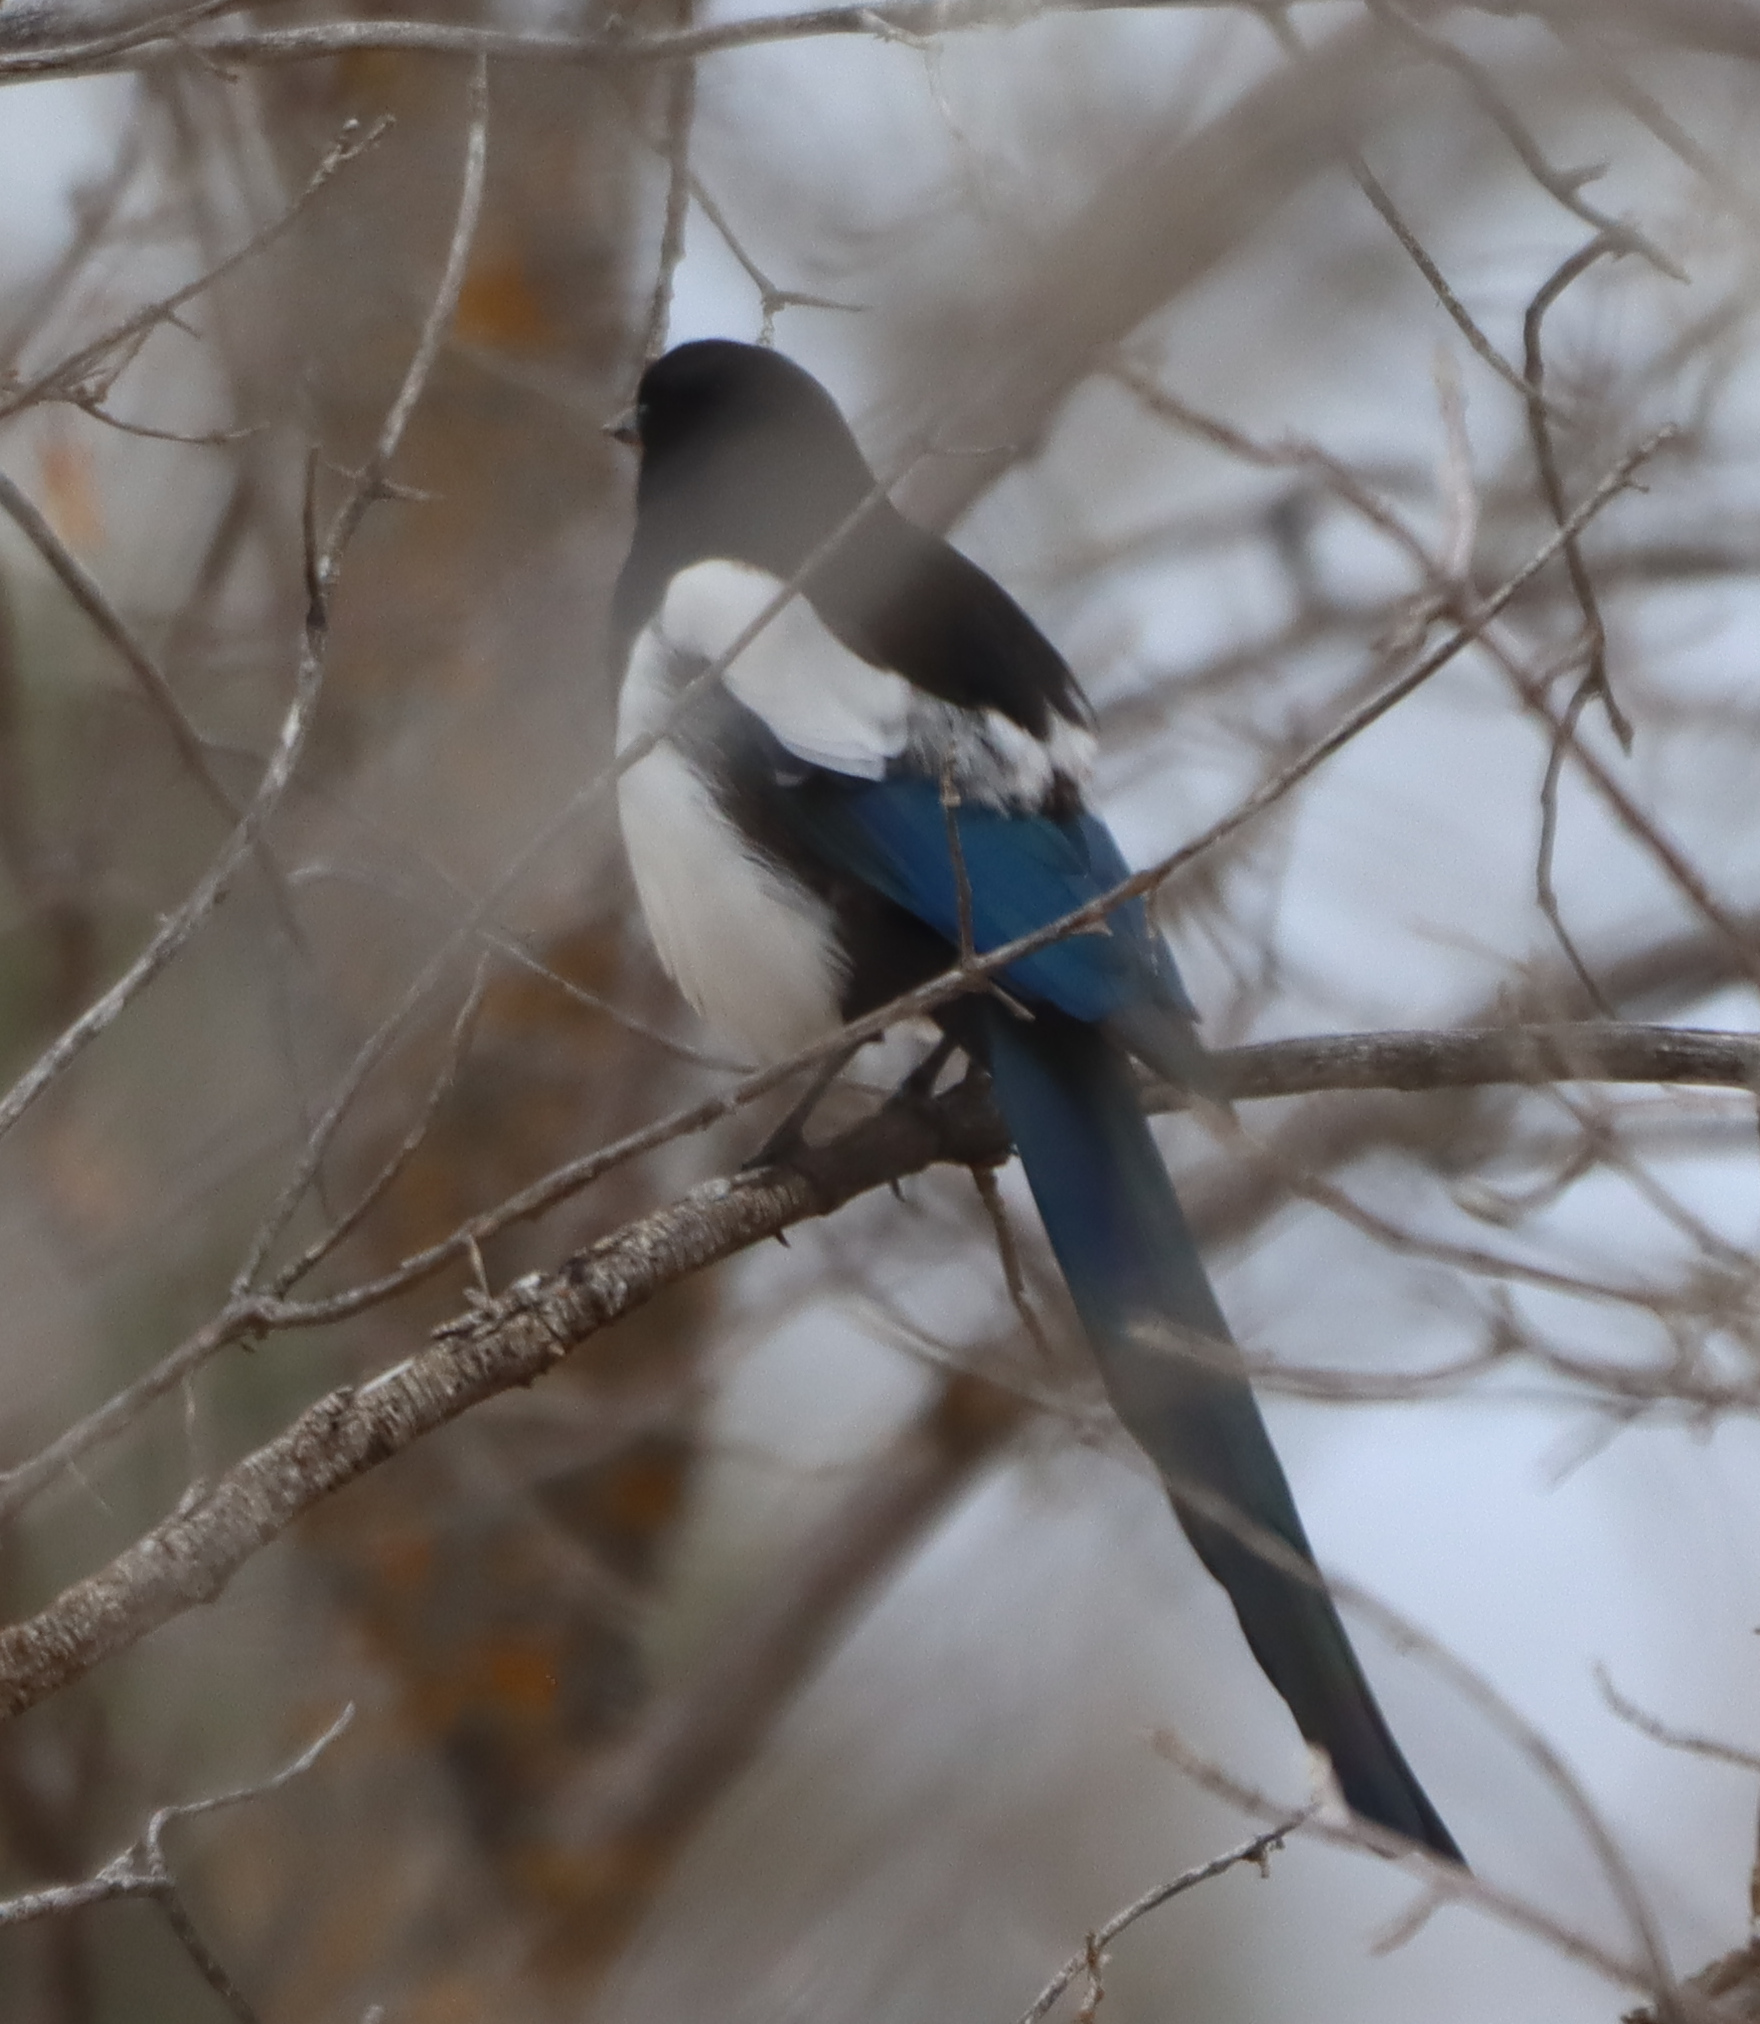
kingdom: Animalia
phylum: Chordata
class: Aves
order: Passeriformes
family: Corvidae
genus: Pica
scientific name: Pica hudsonia
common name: Black-billed magpie
